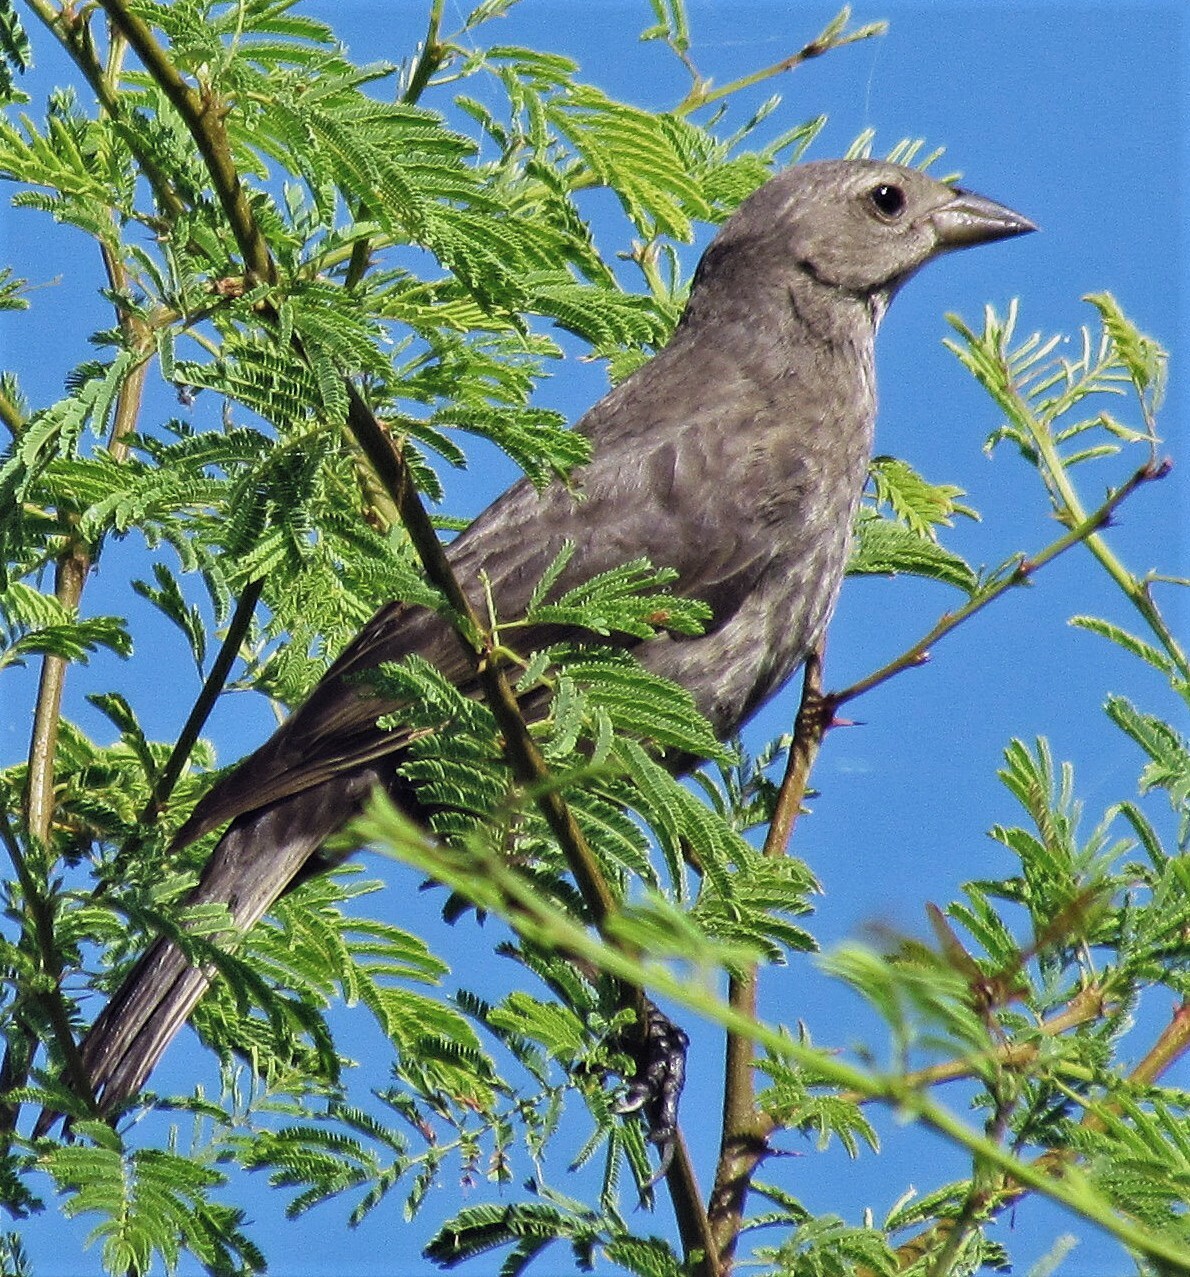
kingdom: Animalia
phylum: Chordata
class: Aves
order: Passeriformes
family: Icteridae
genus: Molothrus
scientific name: Molothrus bonariensis
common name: Shiny cowbird
